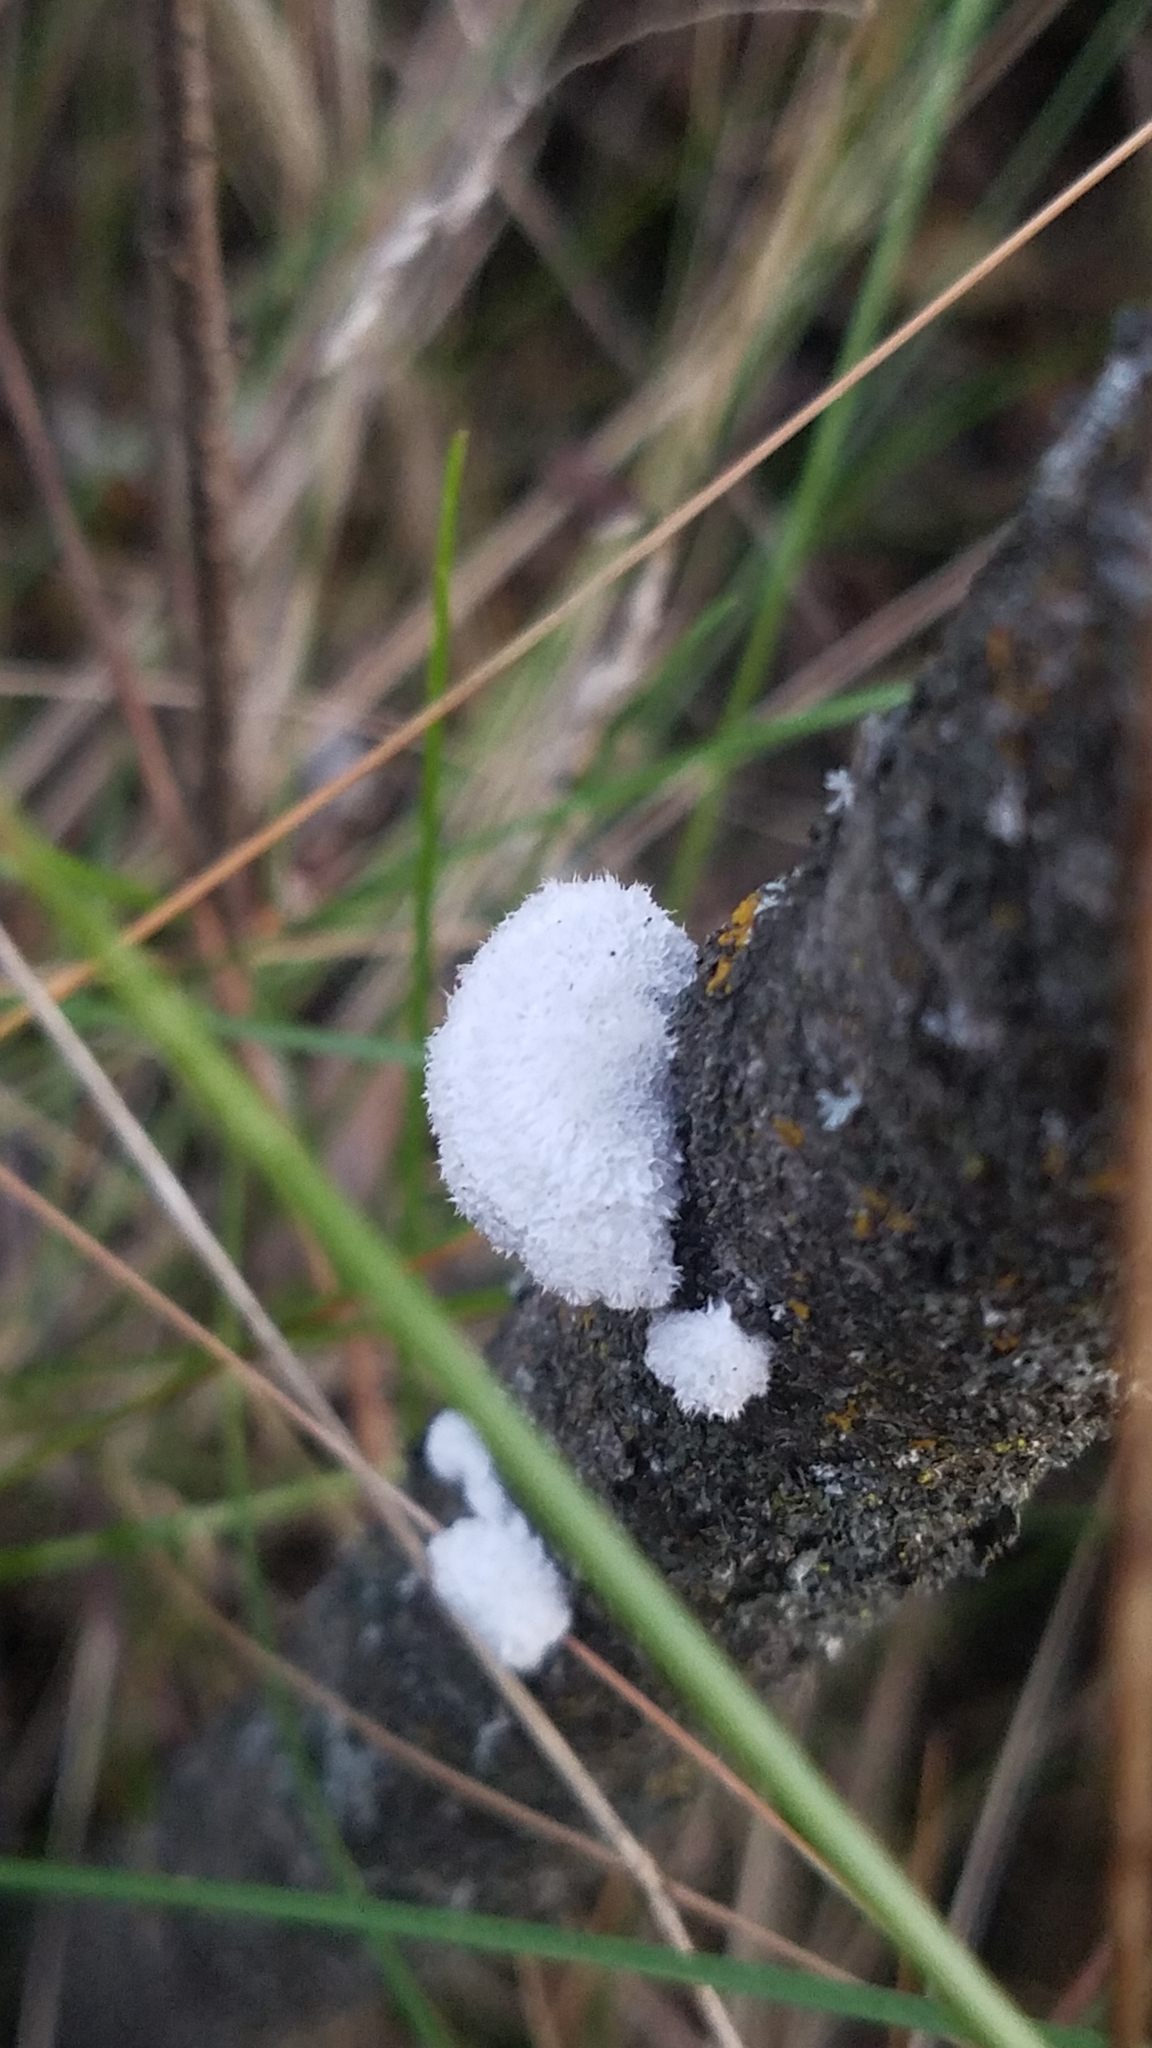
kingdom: Fungi
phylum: Basidiomycota
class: Agaricomycetes
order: Agaricales
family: Schizophyllaceae
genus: Schizophyllum
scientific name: Schizophyllum commune
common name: Common porecrust
